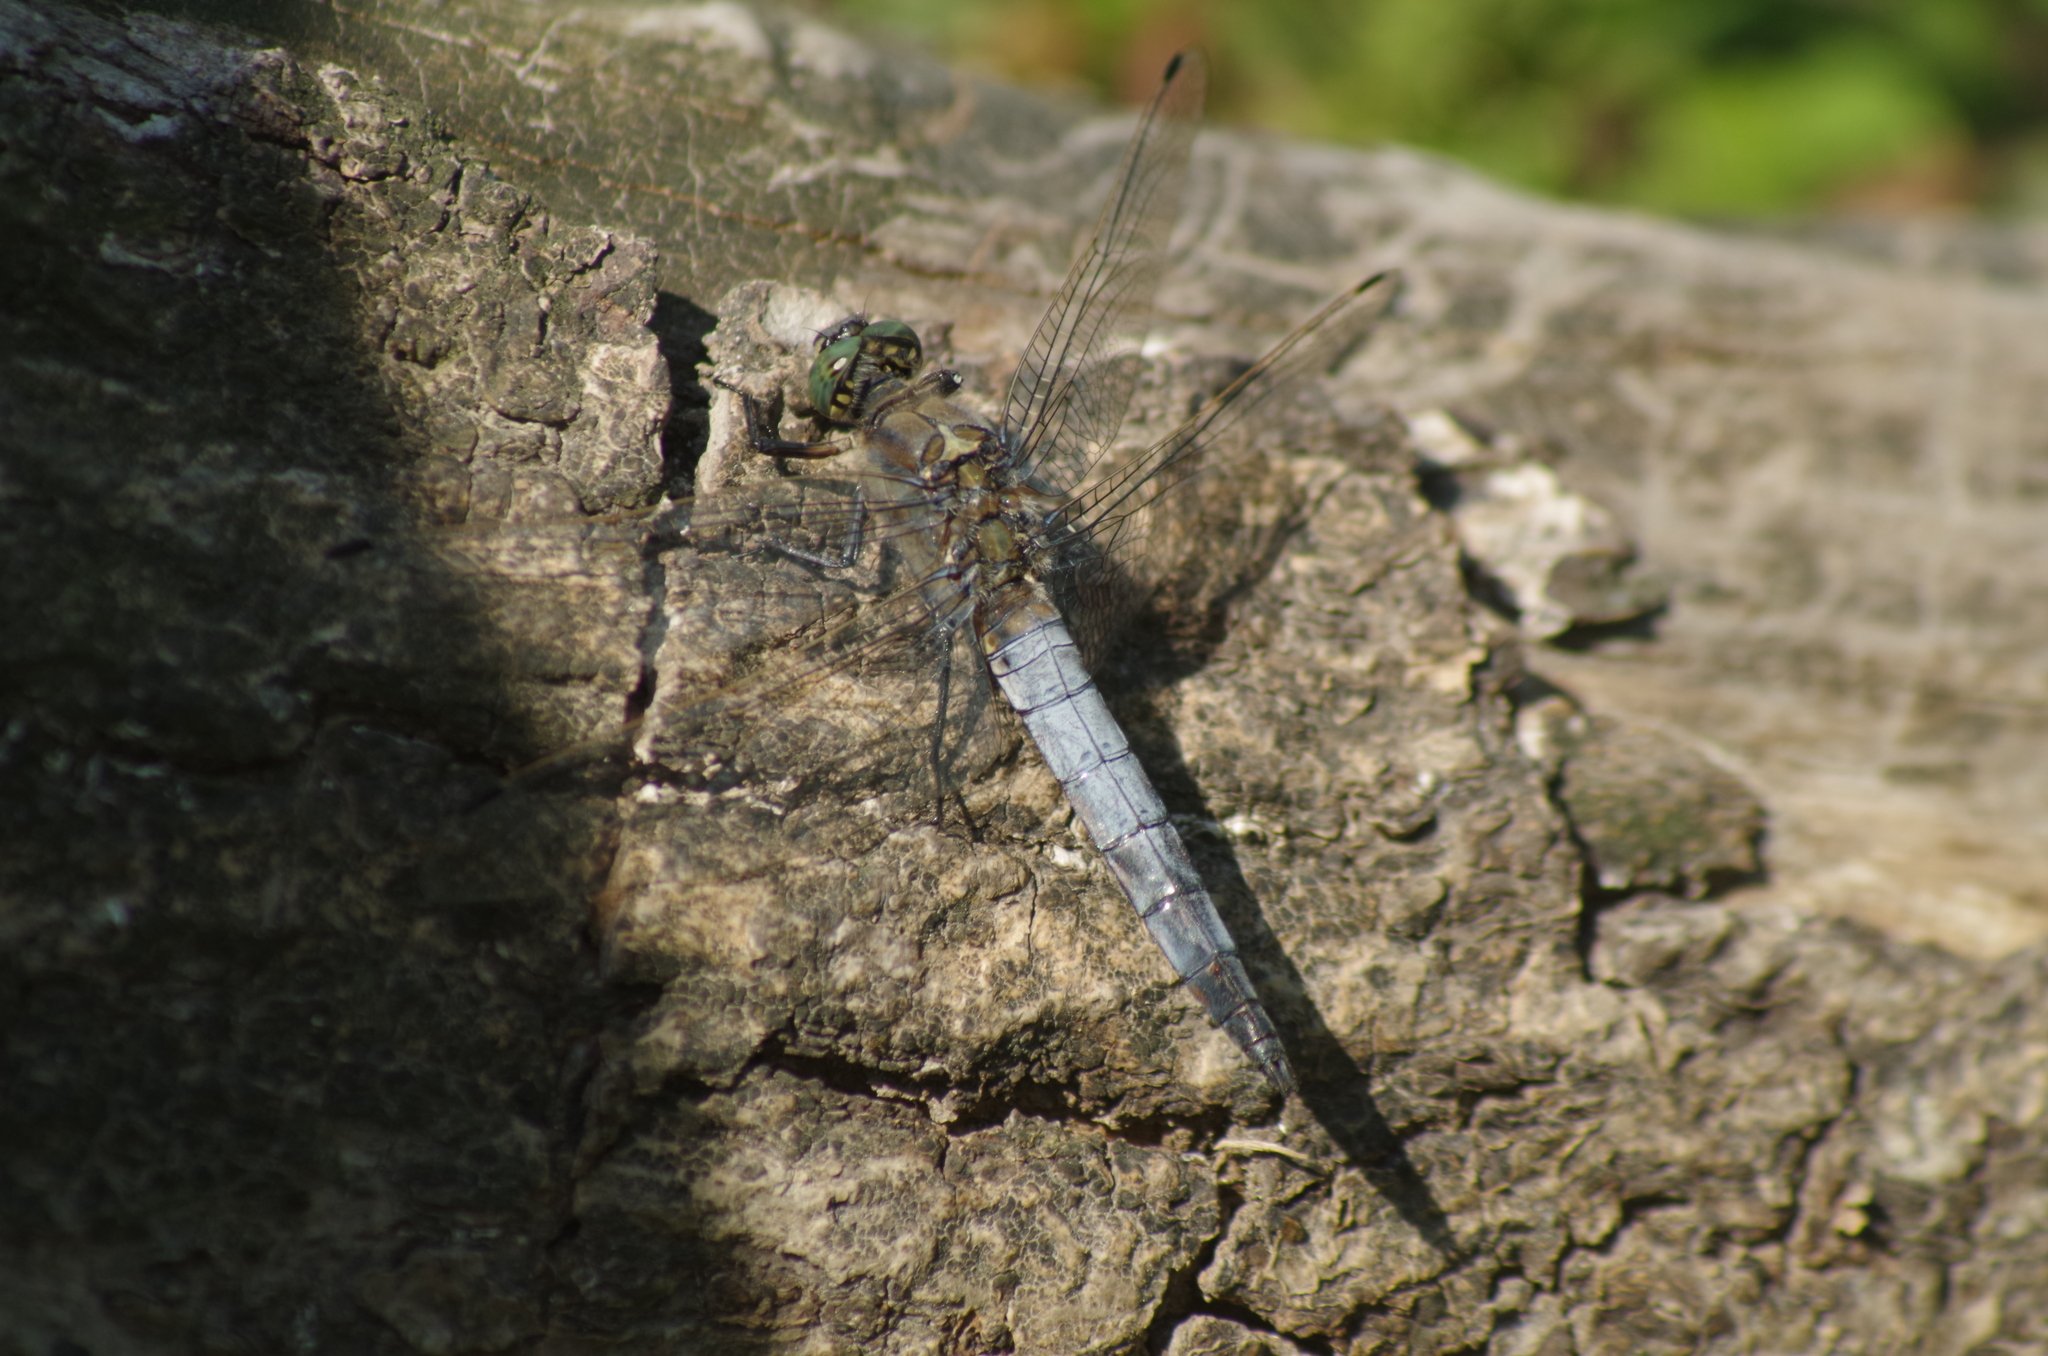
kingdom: Animalia
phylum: Arthropoda
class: Insecta
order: Odonata
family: Libellulidae
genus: Orthetrum
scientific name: Orthetrum cancellatum
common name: Black-tailed skimmer
